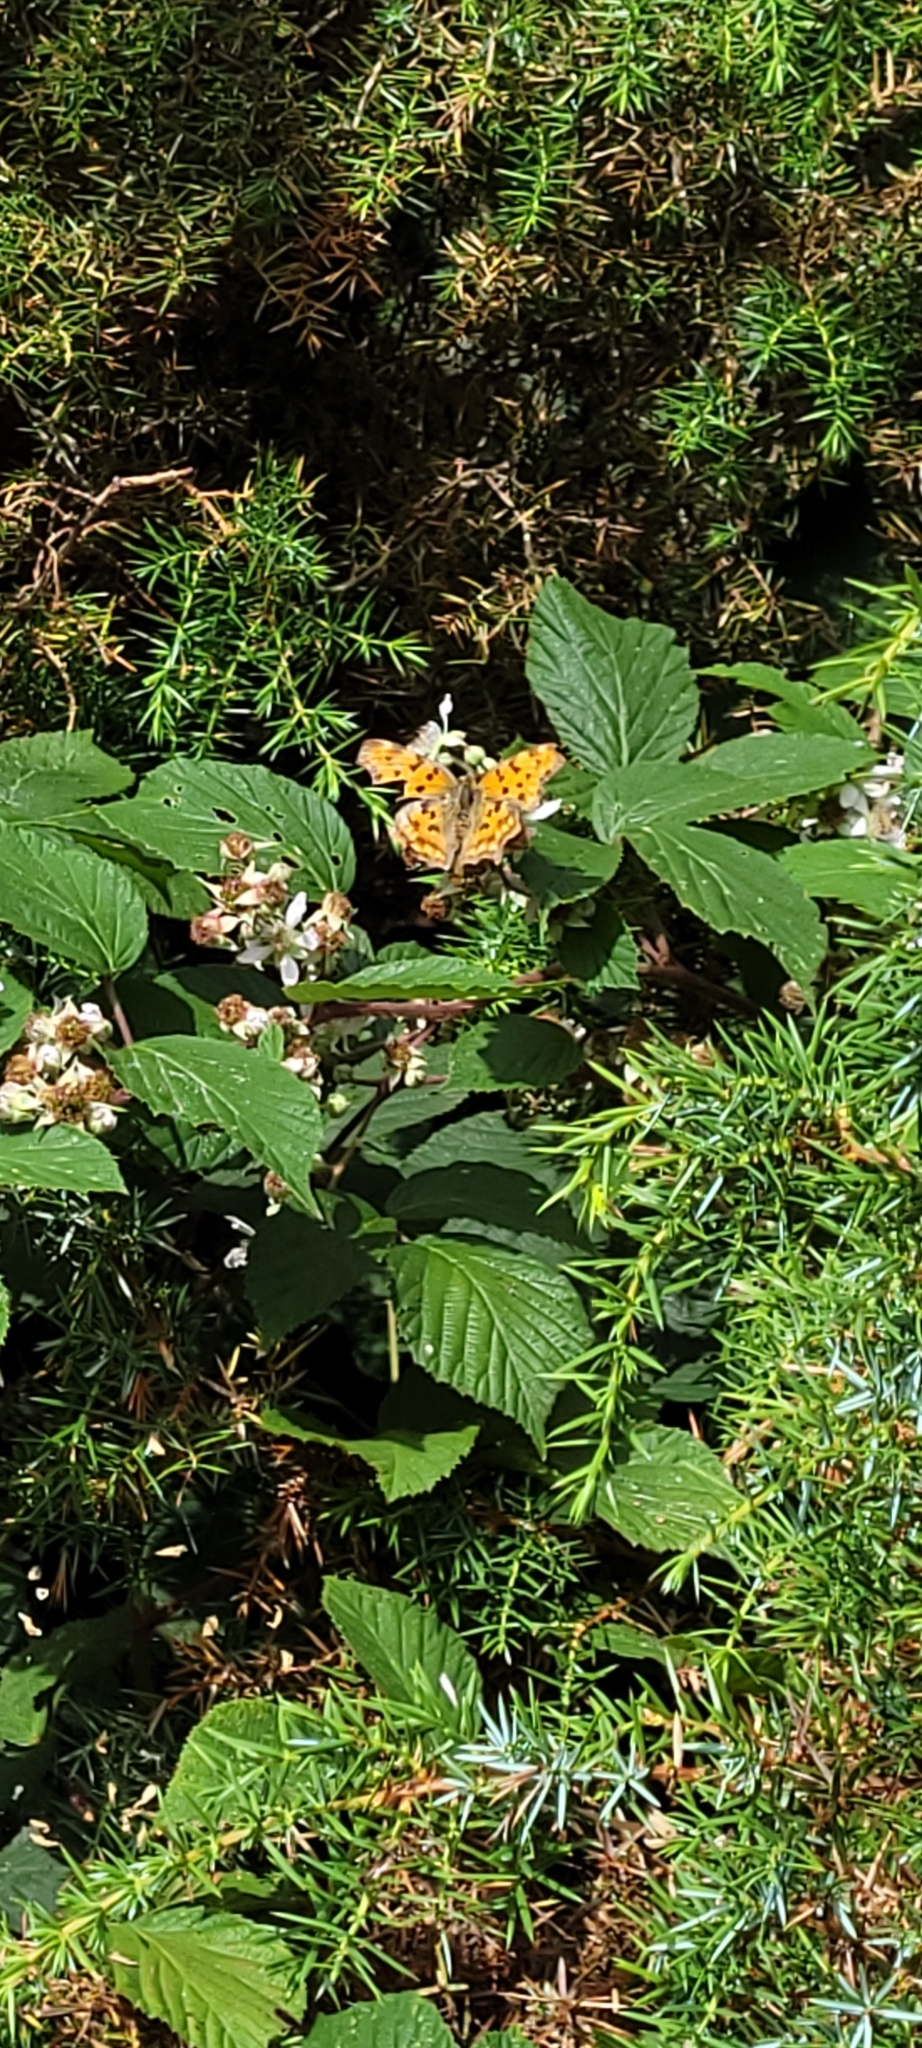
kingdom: Animalia
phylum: Arthropoda
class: Insecta
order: Lepidoptera
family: Nymphalidae
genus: Polygonia
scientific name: Polygonia c-album
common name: Comma
